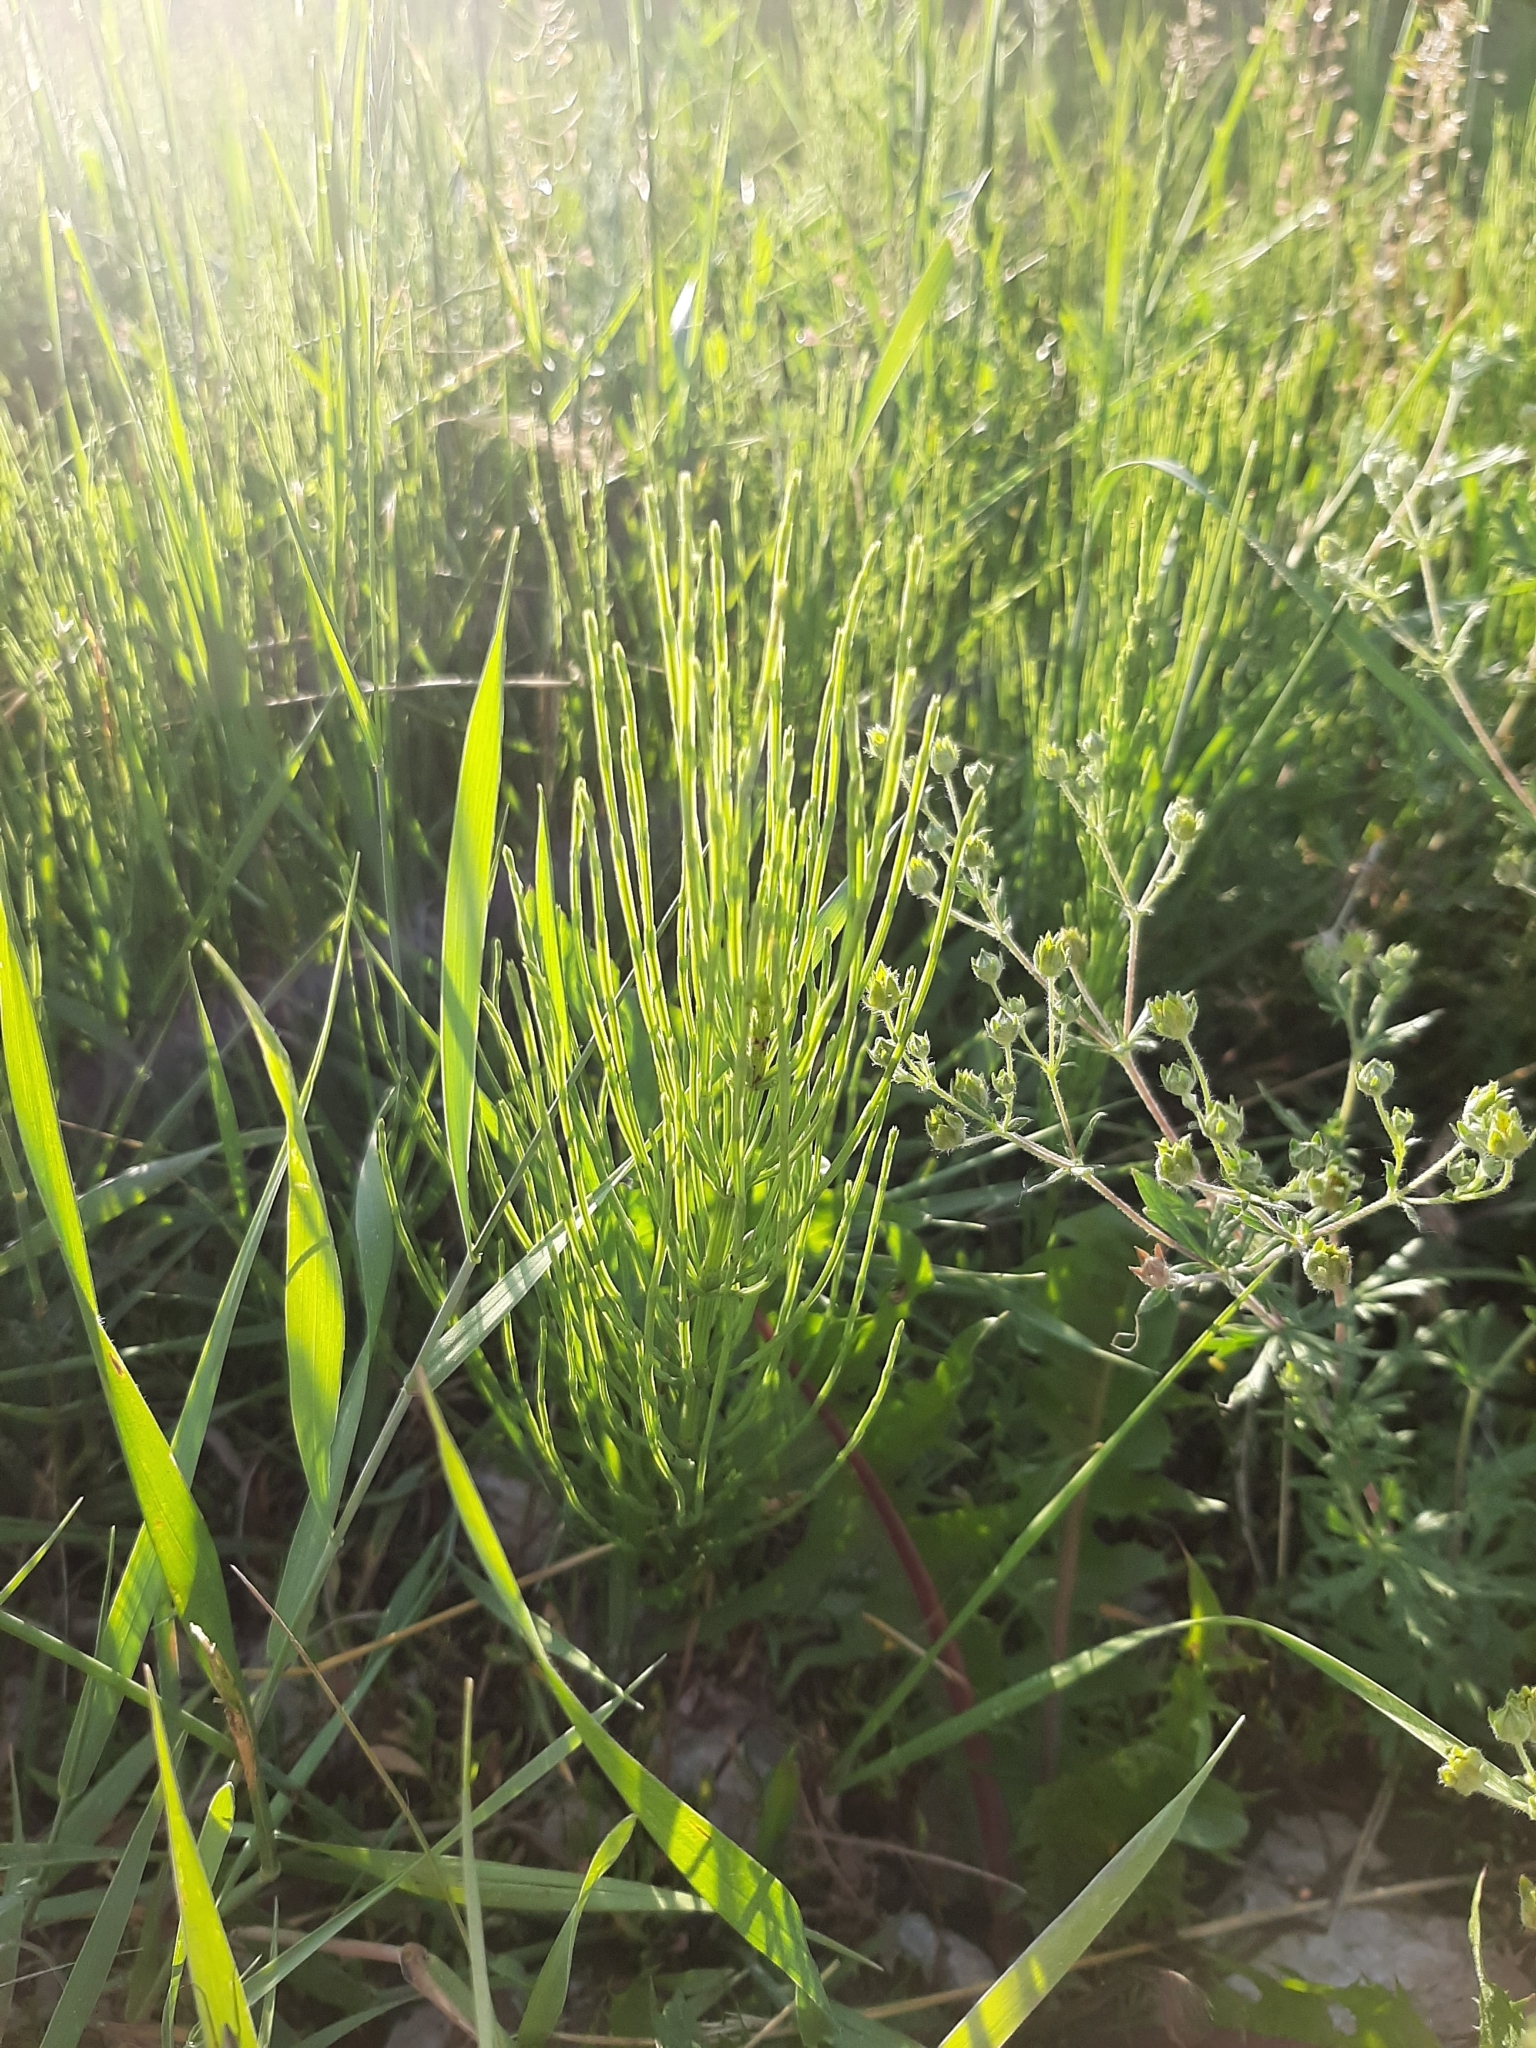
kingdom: Plantae
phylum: Tracheophyta
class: Polypodiopsida
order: Equisetales
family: Equisetaceae
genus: Equisetum
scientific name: Equisetum arvense
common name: Field horsetail
